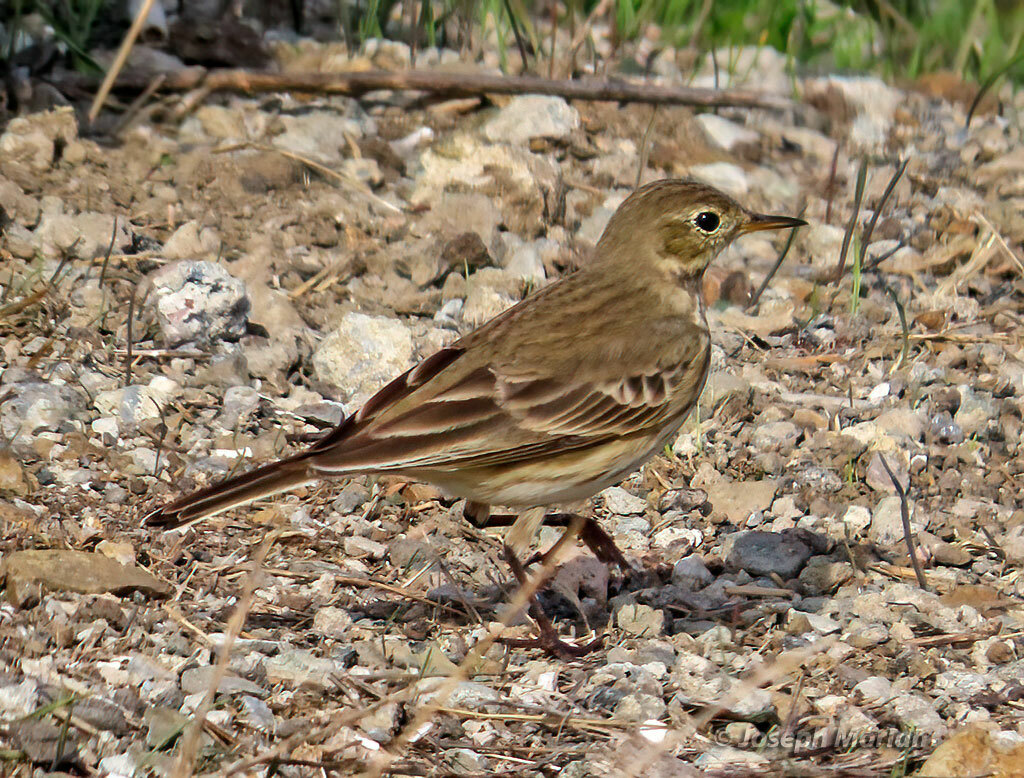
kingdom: Animalia
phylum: Chordata
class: Aves
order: Passeriformes
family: Motacillidae
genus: Anthus
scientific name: Anthus rubescens
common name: Buff-bellied pipit
